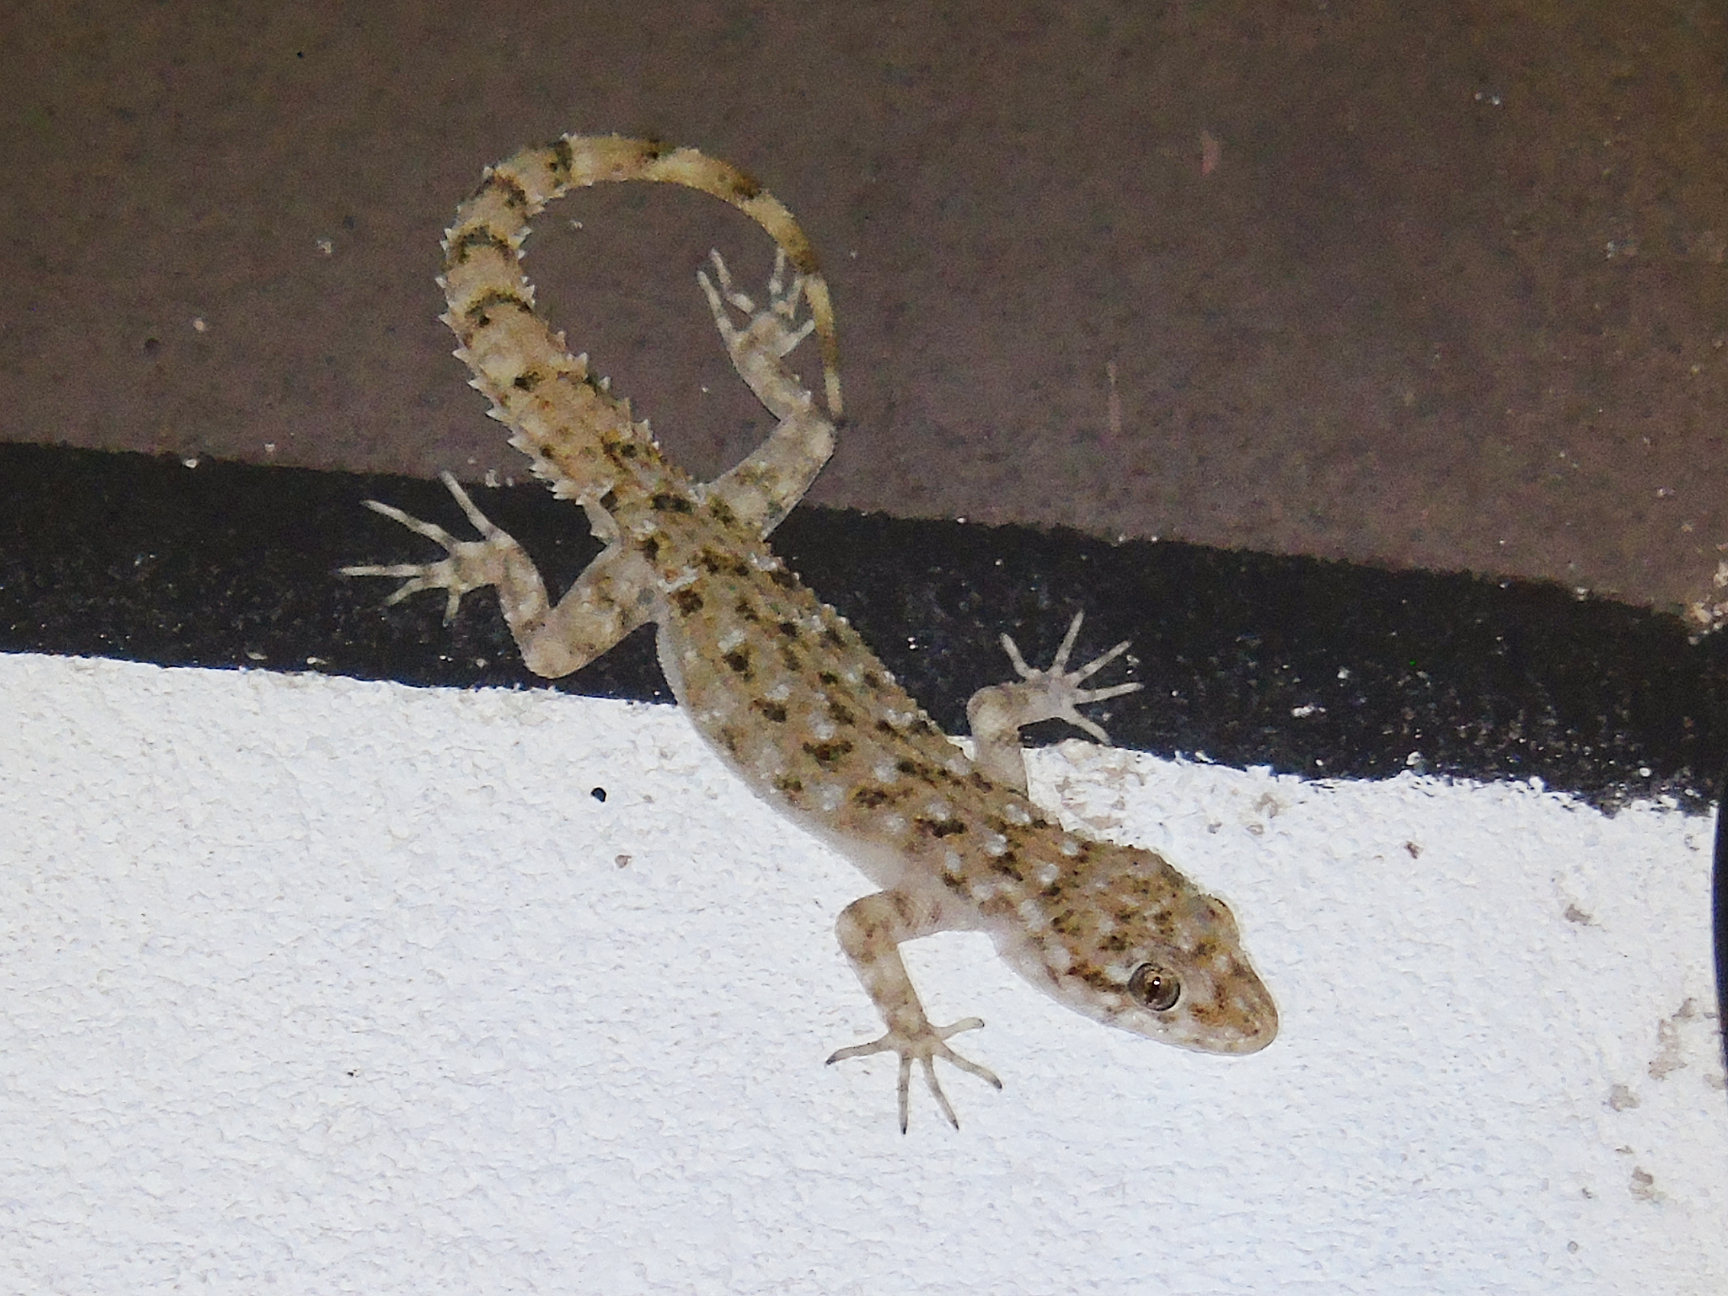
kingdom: Animalia
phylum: Chordata
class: Squamata
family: Gekkonidae
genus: Mediodactylus
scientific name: Mediodactylus kotschyi
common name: Kotschy's gecko
